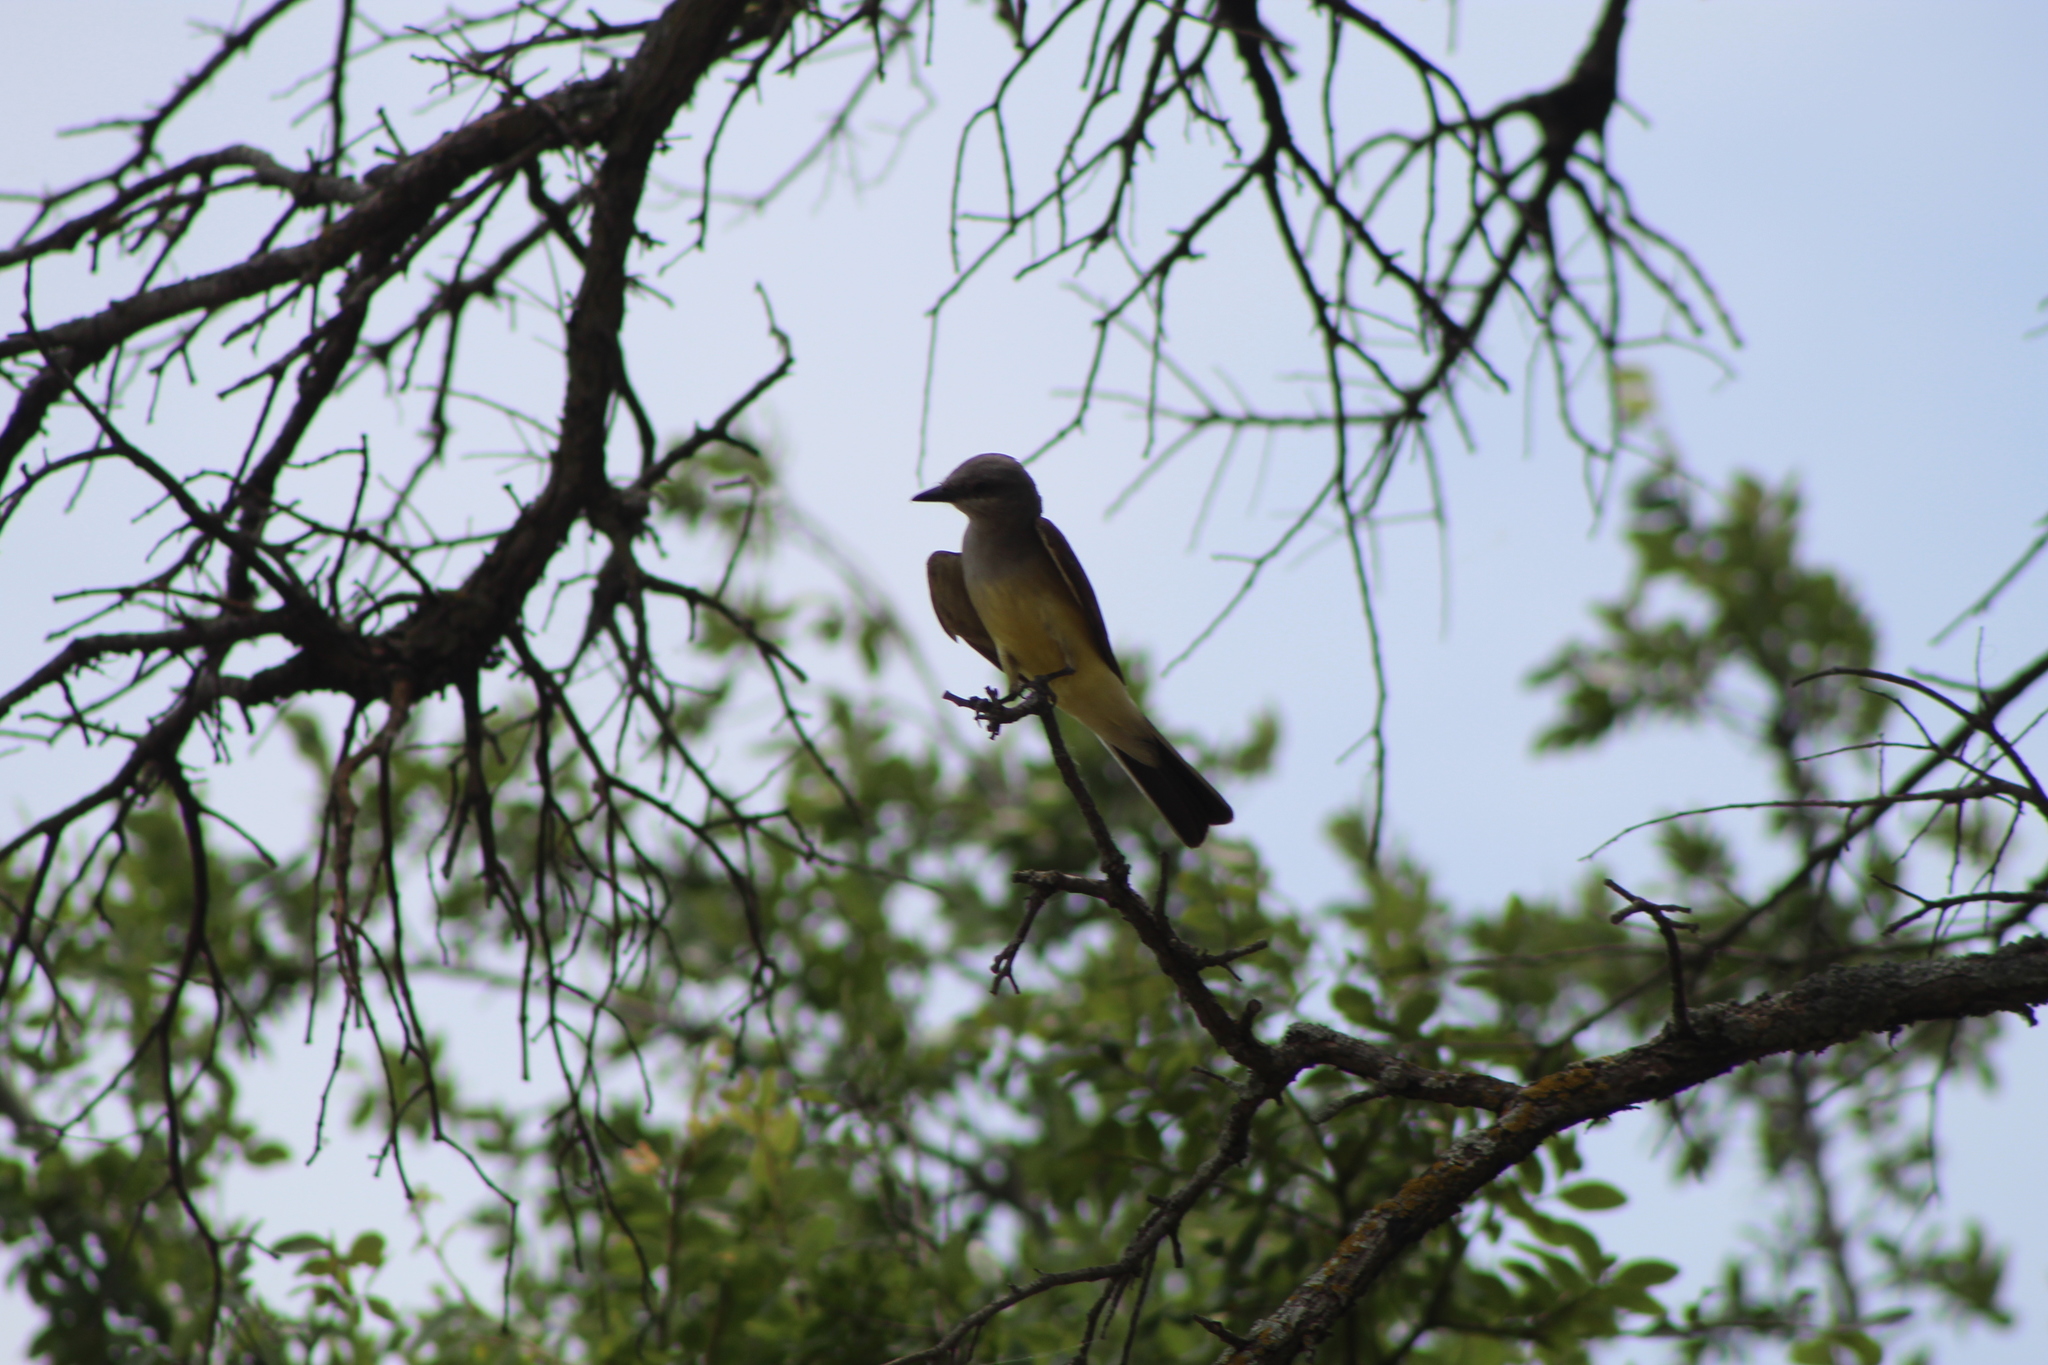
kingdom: Animalia
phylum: Chordata
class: Aves
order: Passeriformes
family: Tyrannidae
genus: Tyrannus
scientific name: Tyrannus verticalis
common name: Western kingbird
